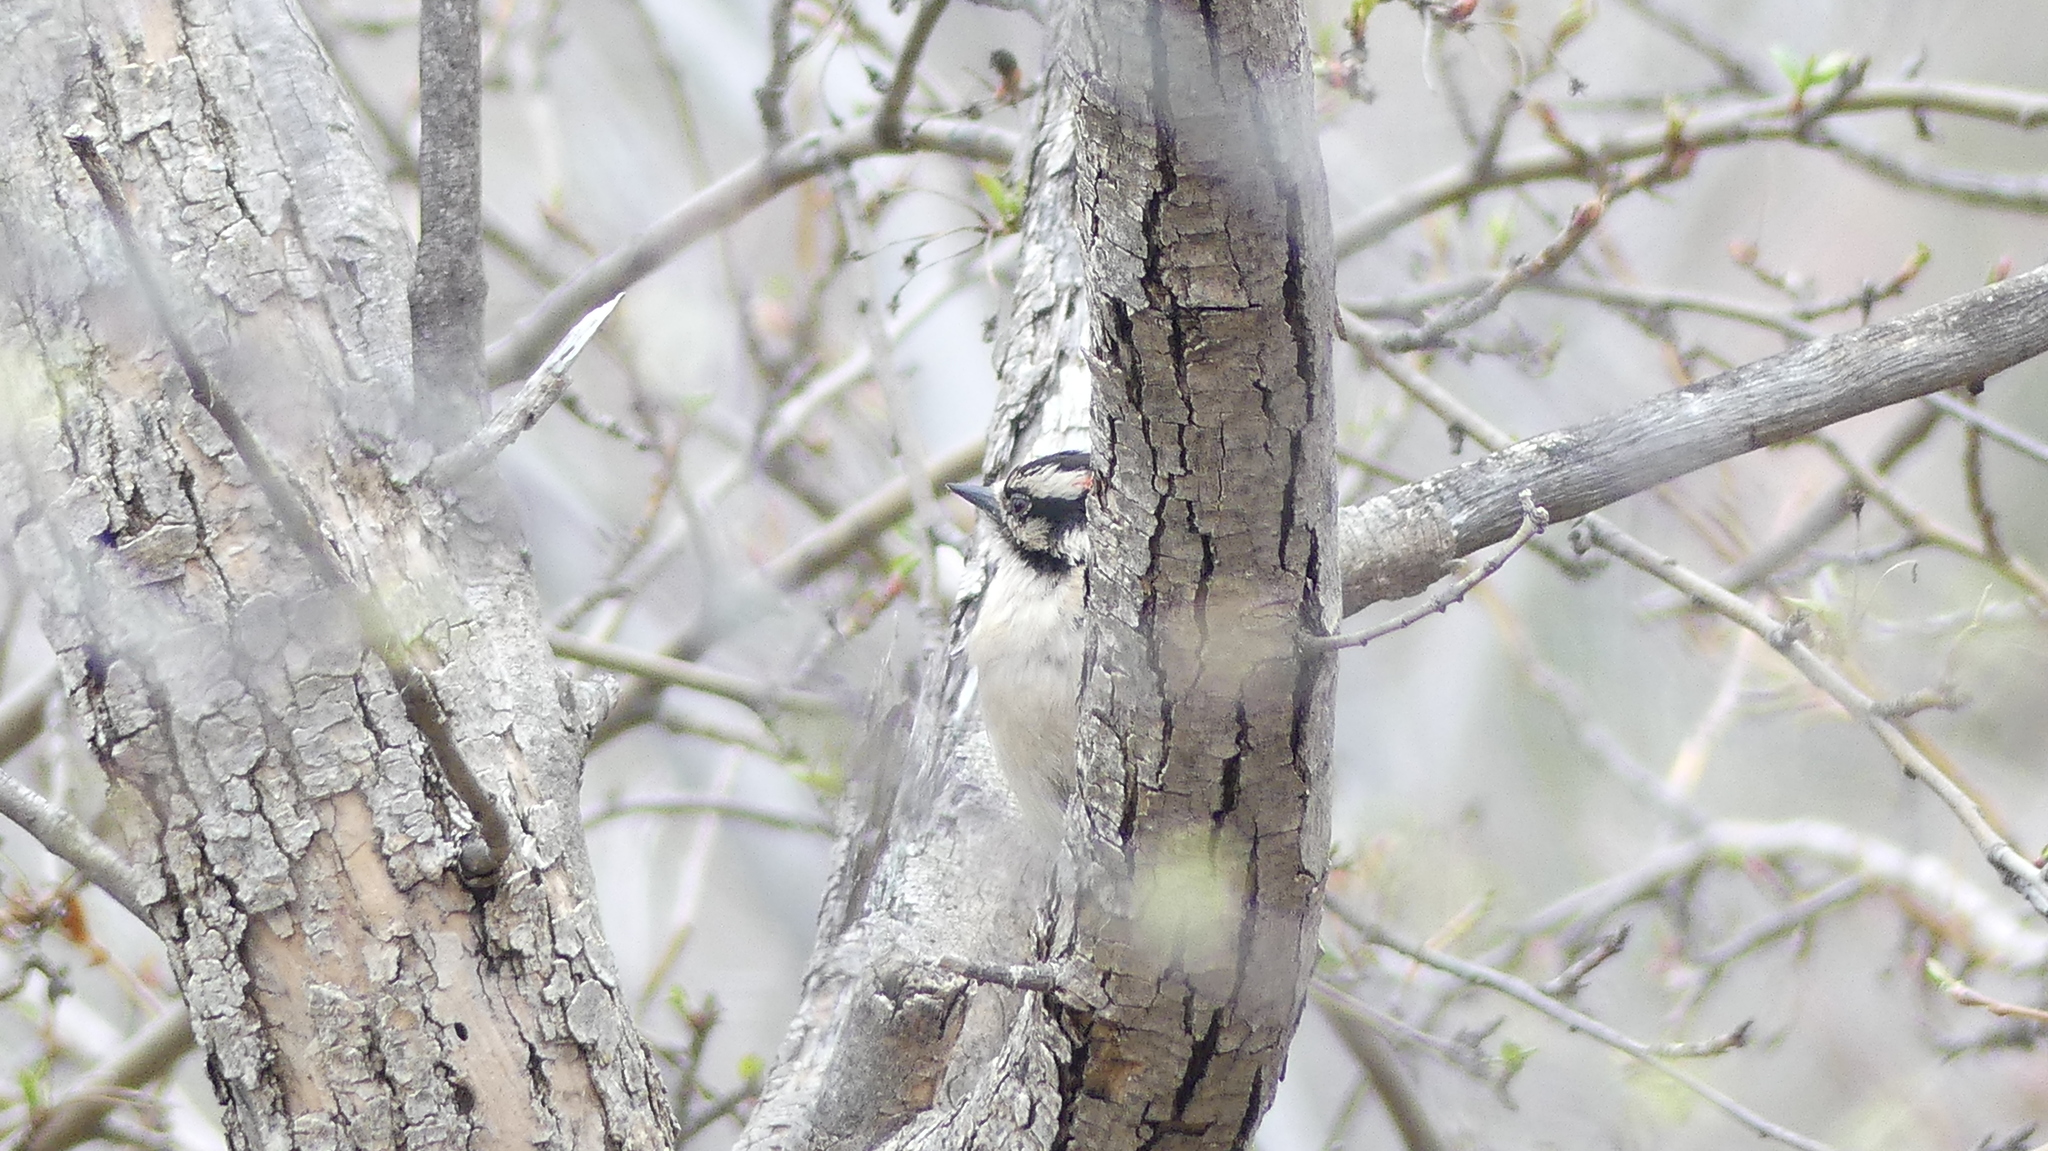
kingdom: Animalia
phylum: Chordata
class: Aves
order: Piciformes
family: Picidae
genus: Dryobates
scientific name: Dryobates pubescens
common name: Downy woodpecker
